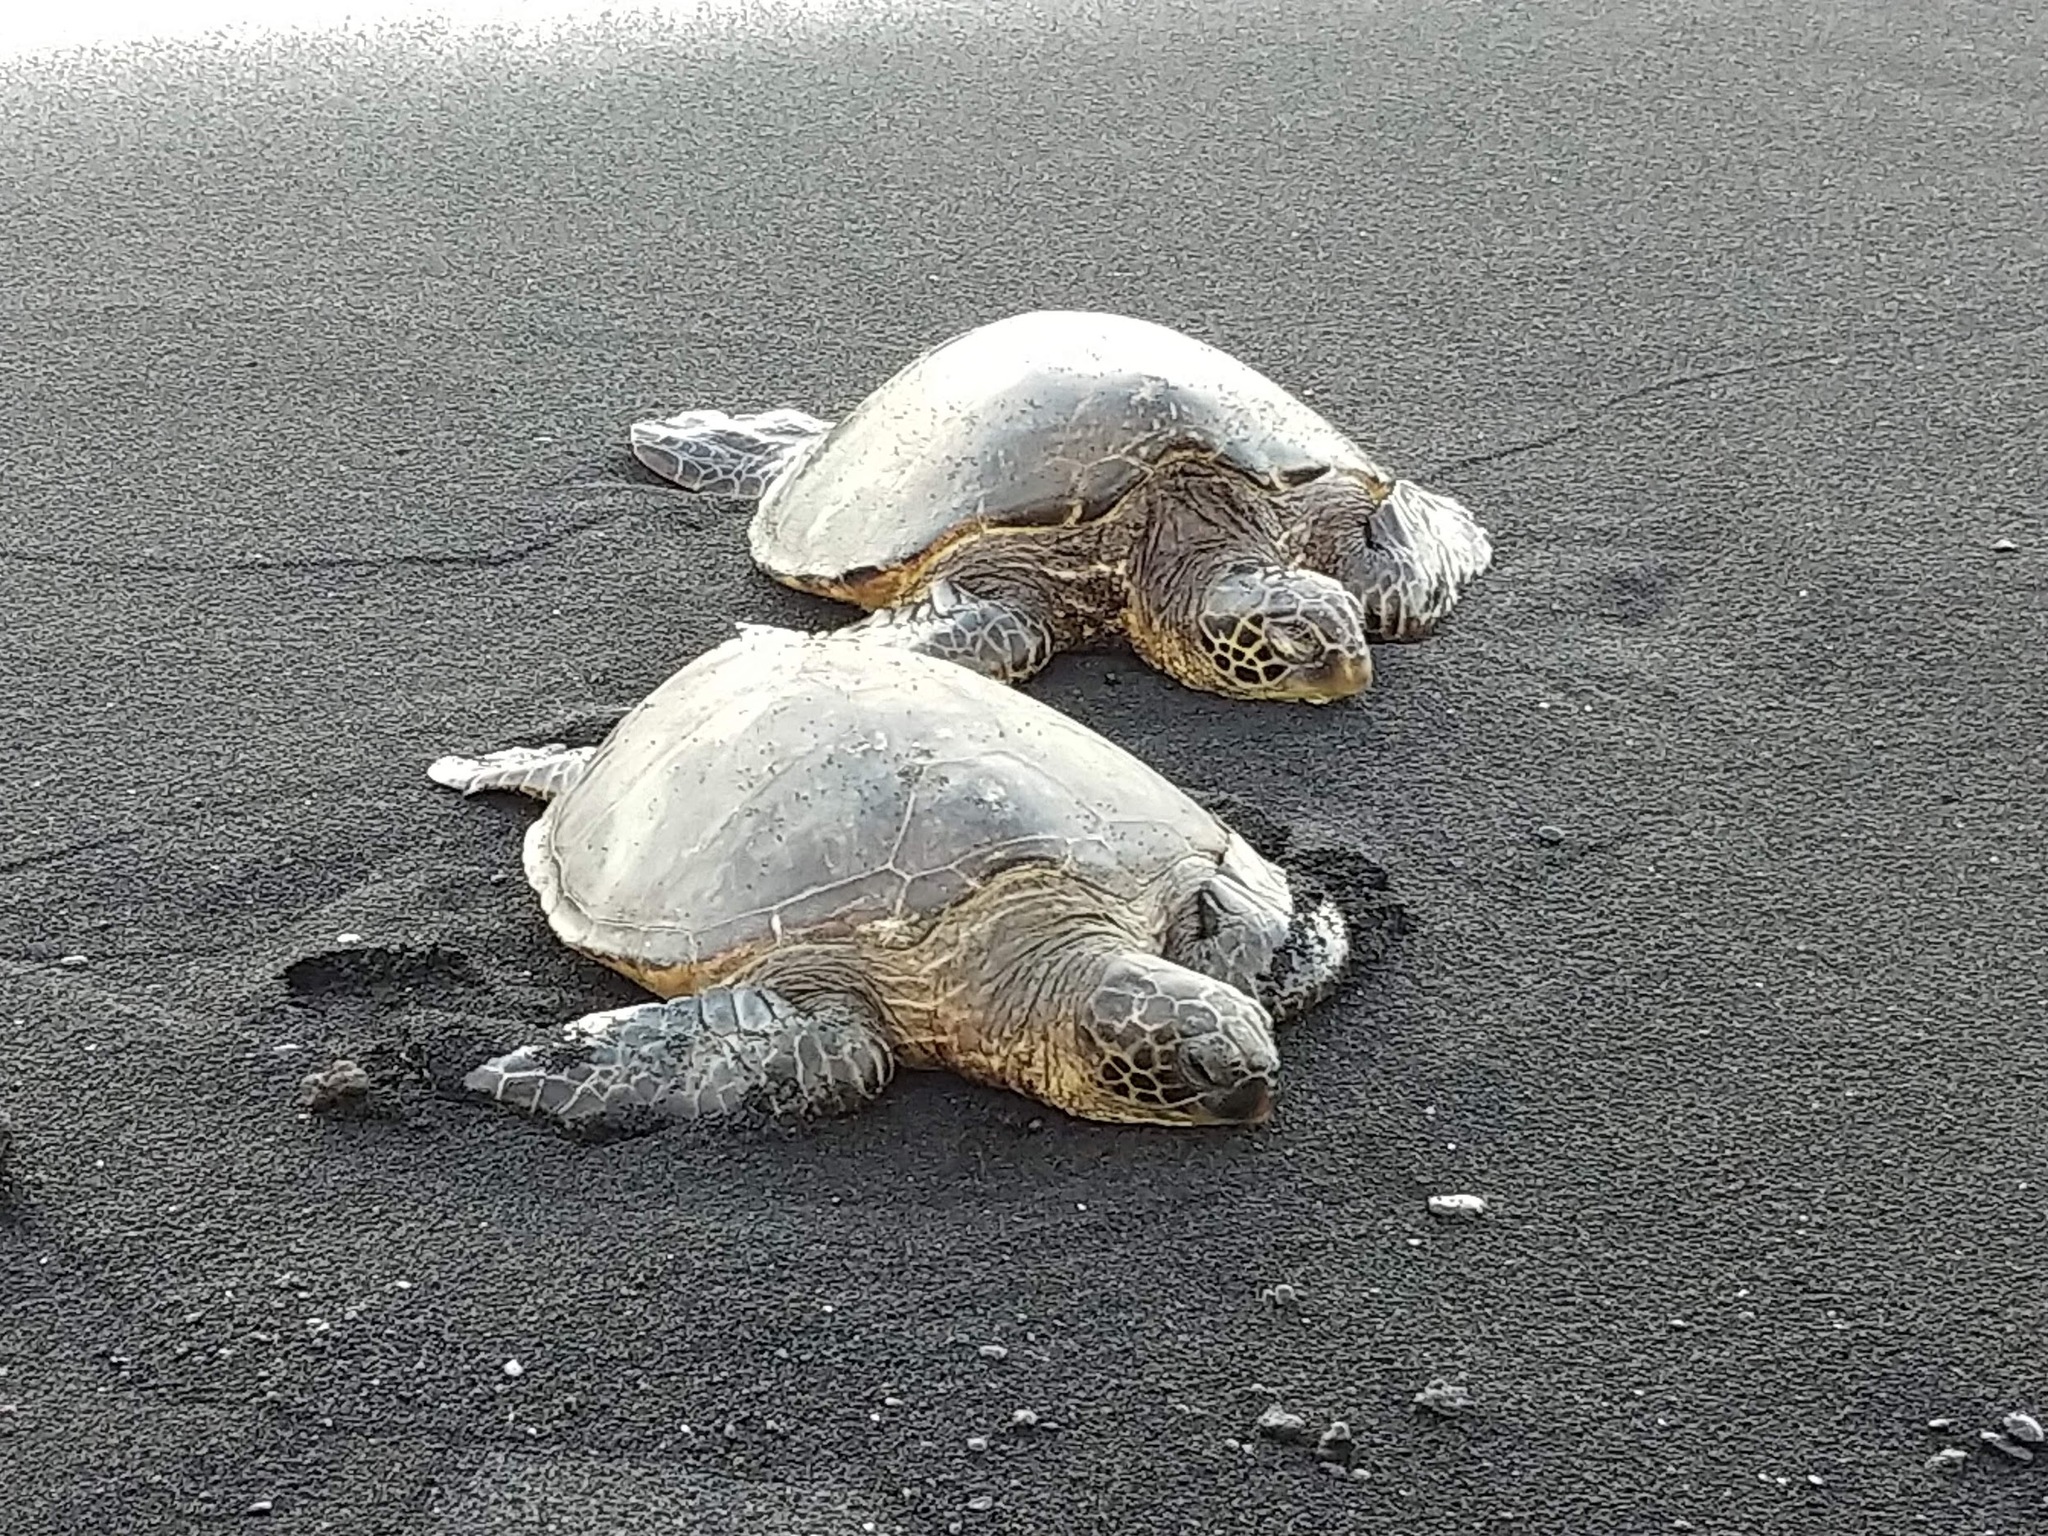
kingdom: Animalia
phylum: Chordata
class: Testudines
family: Cheloniidae
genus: Chelonia
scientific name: Chelonia mydas
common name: Green turtle
